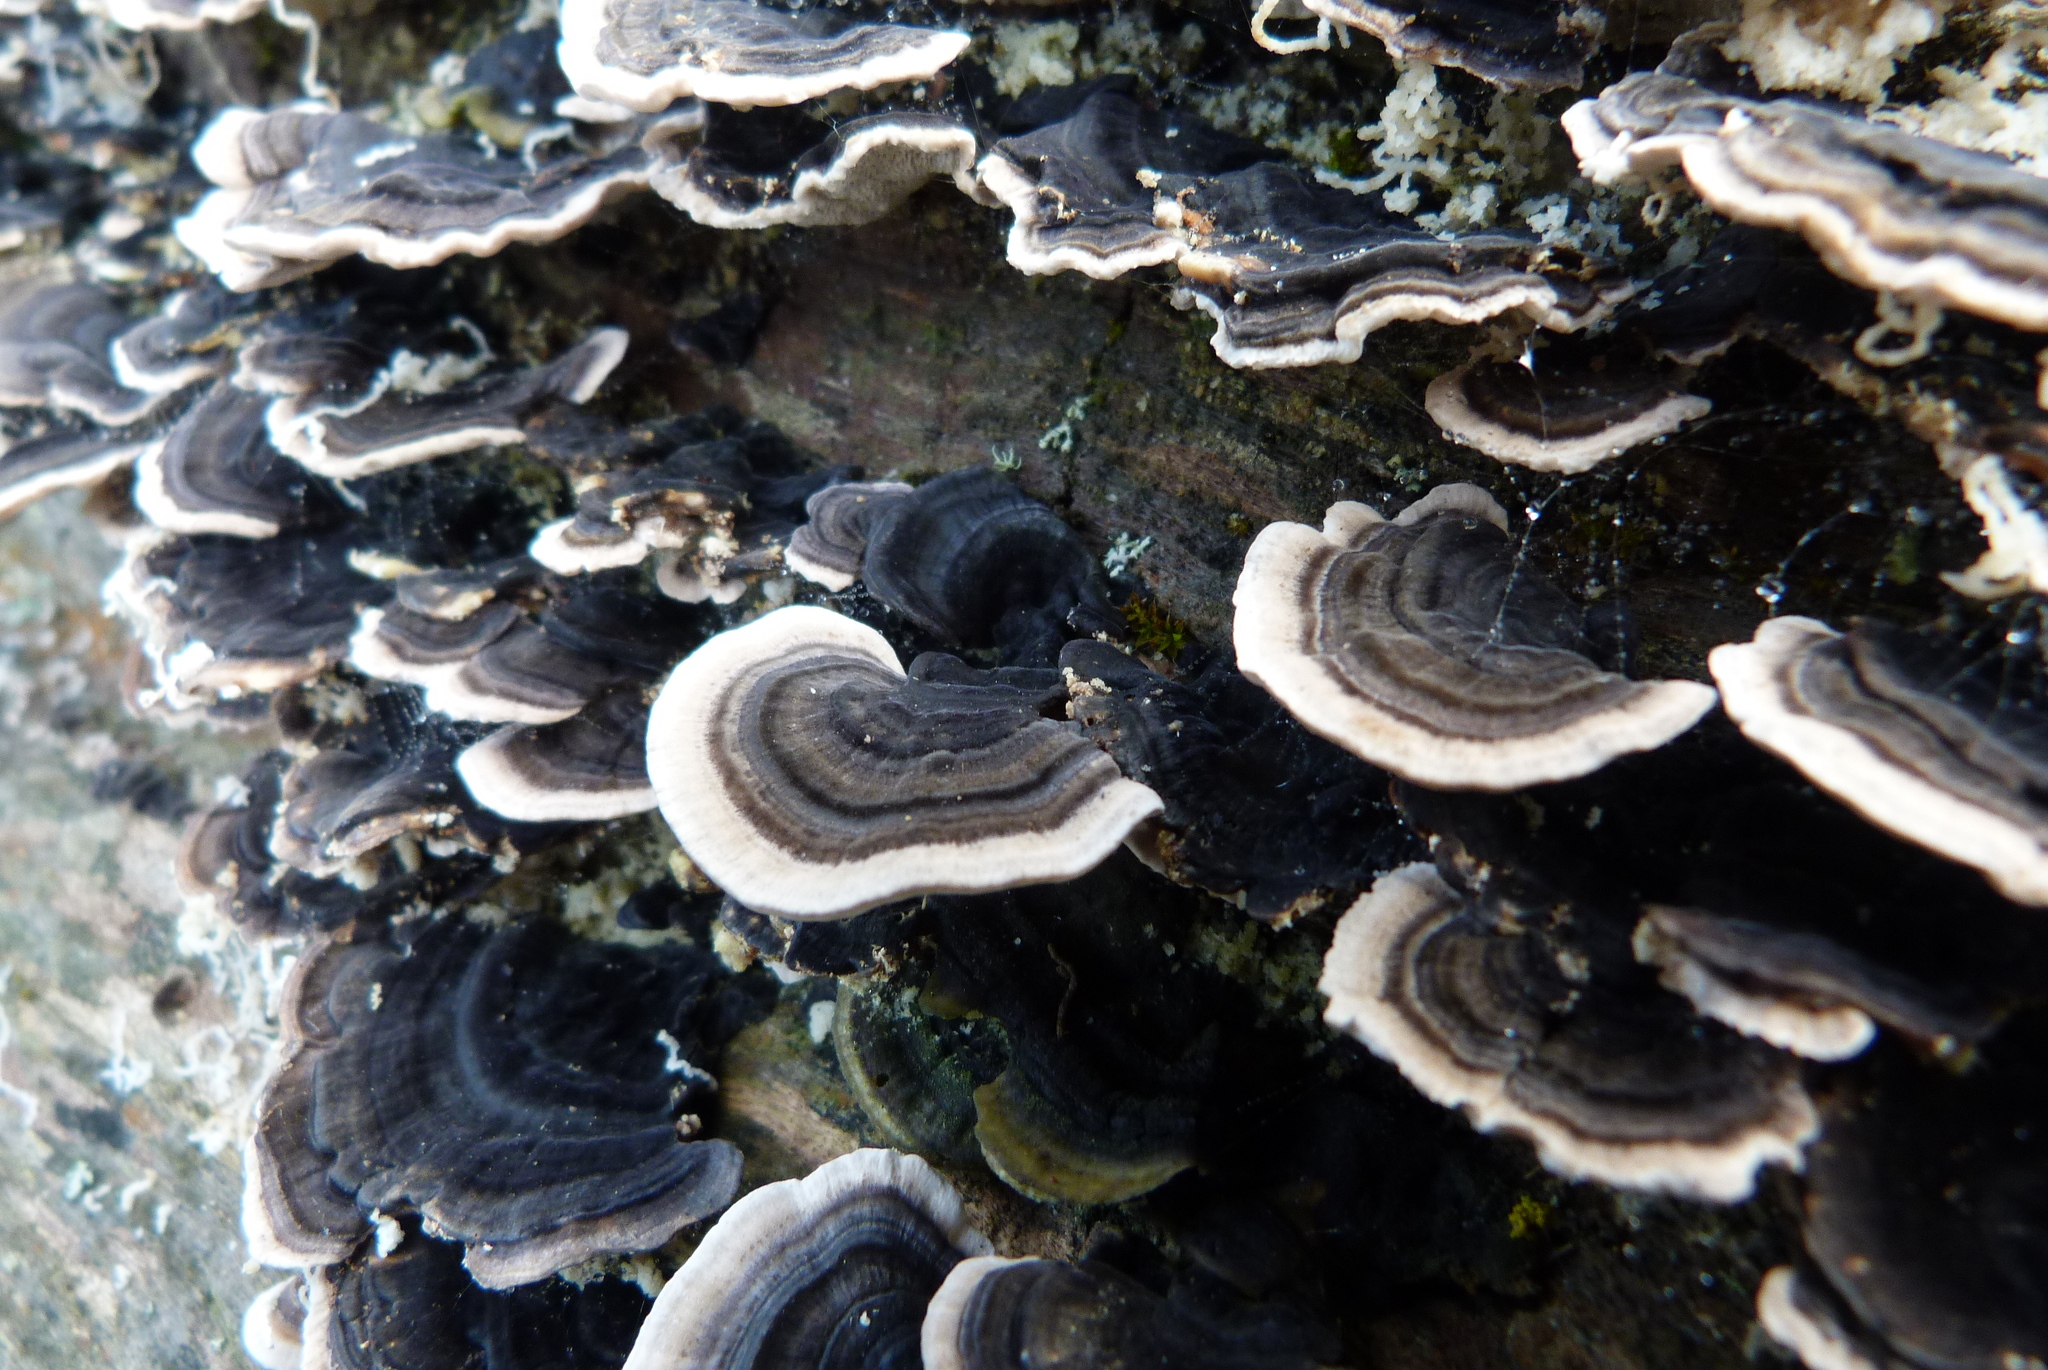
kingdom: Fungi
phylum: Basidiomycota
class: Agaricomycetes
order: Polyporales
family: Polyporaceae
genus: Trametes
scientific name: Trametes versicolor
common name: Turkeytail
